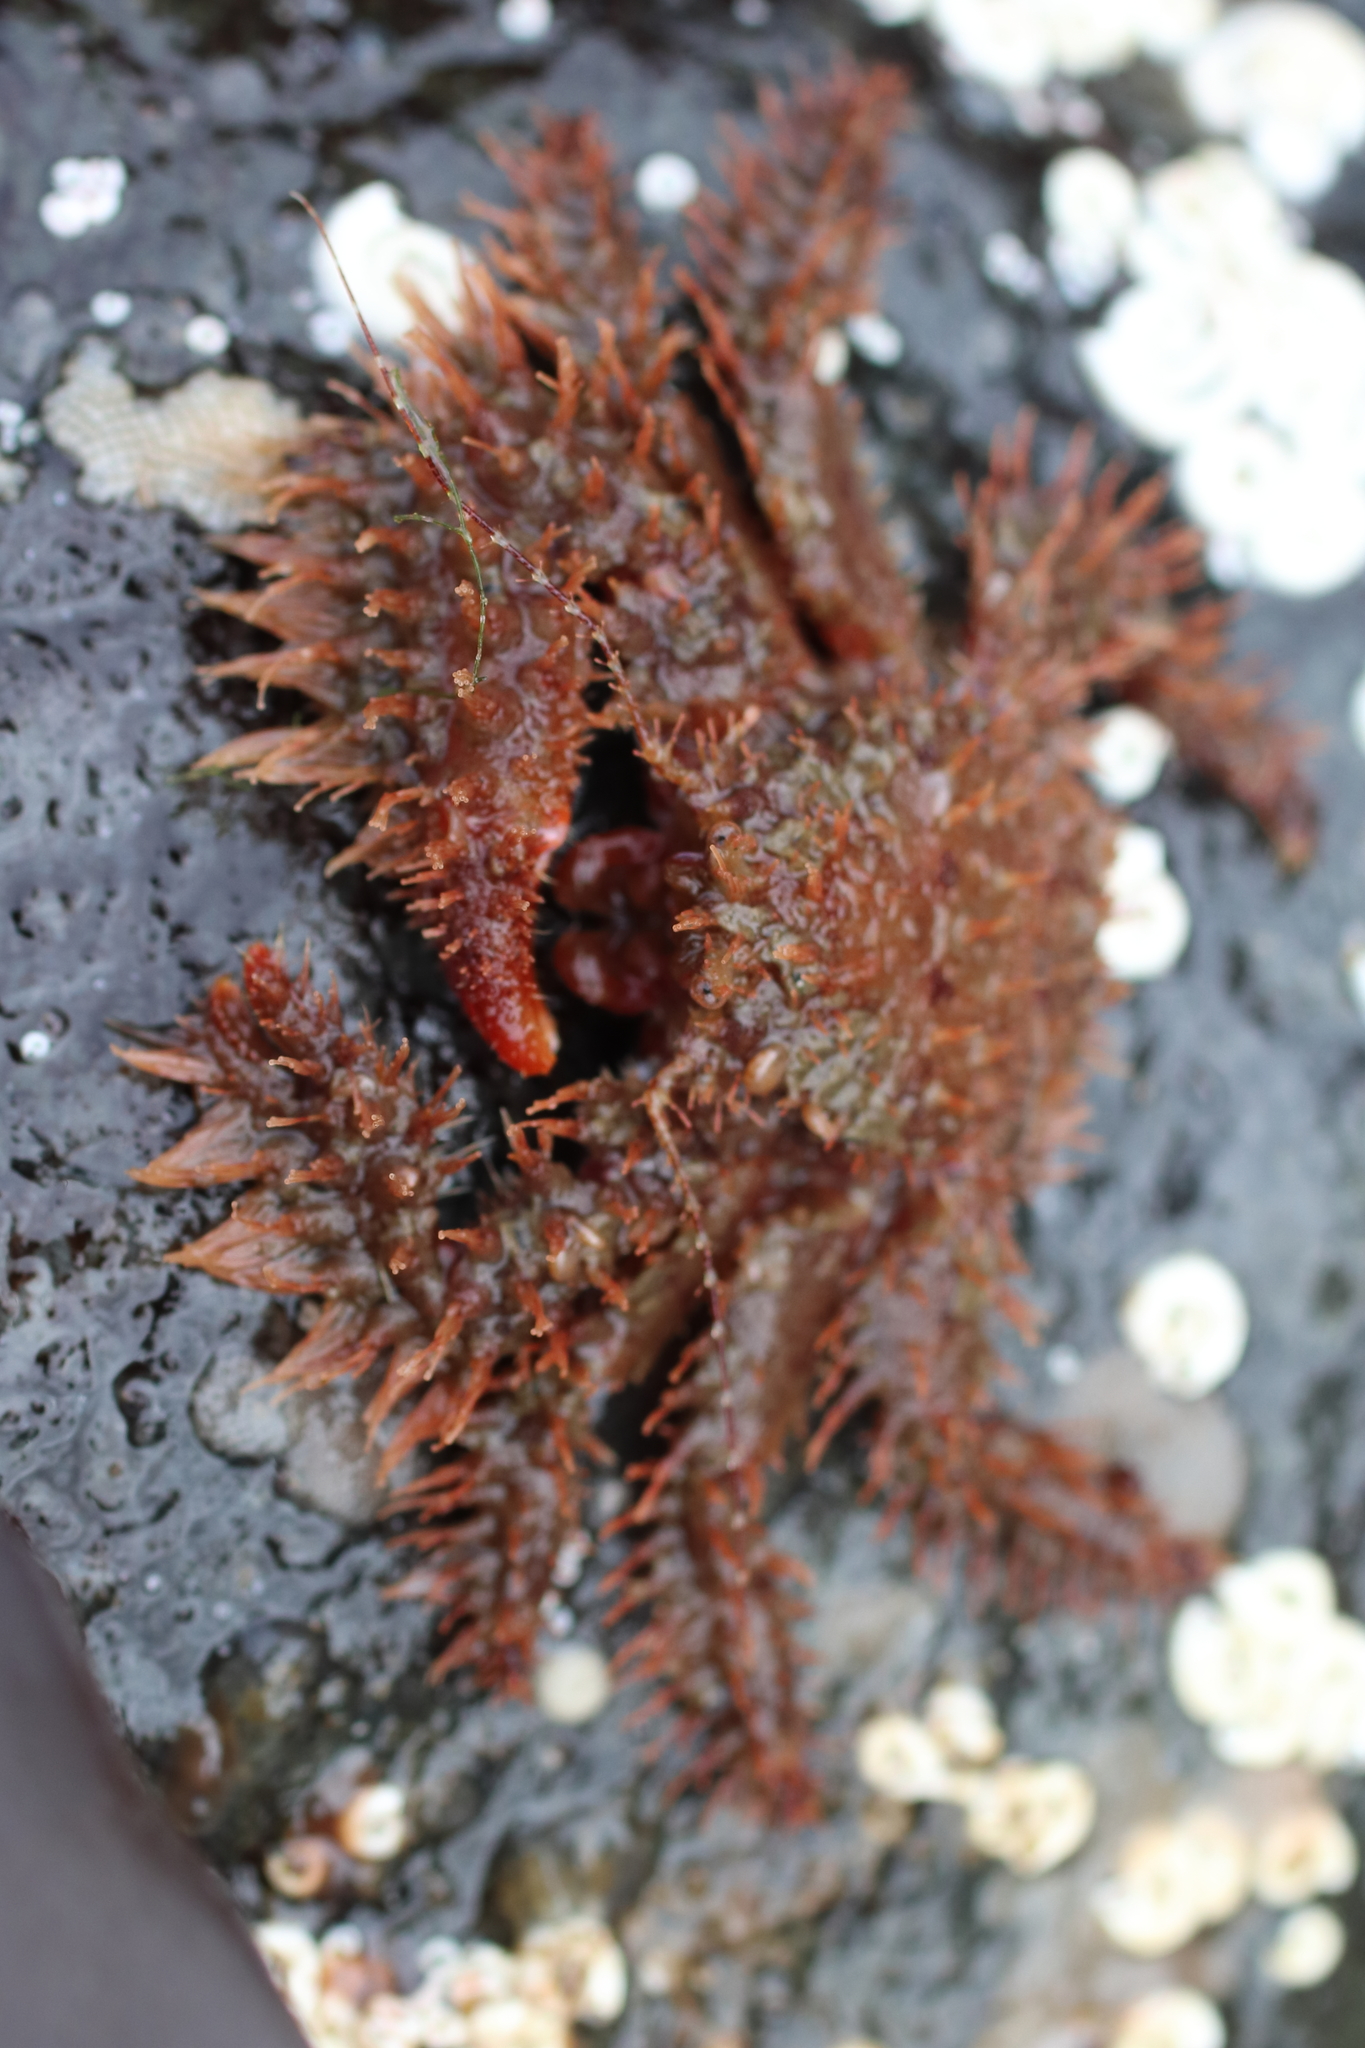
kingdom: Animalia
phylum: Arthropoda
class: Malacostraca
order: Decapoda
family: Hapalogastridae
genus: Hapalogaster
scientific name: Hapalogaster mertensii
